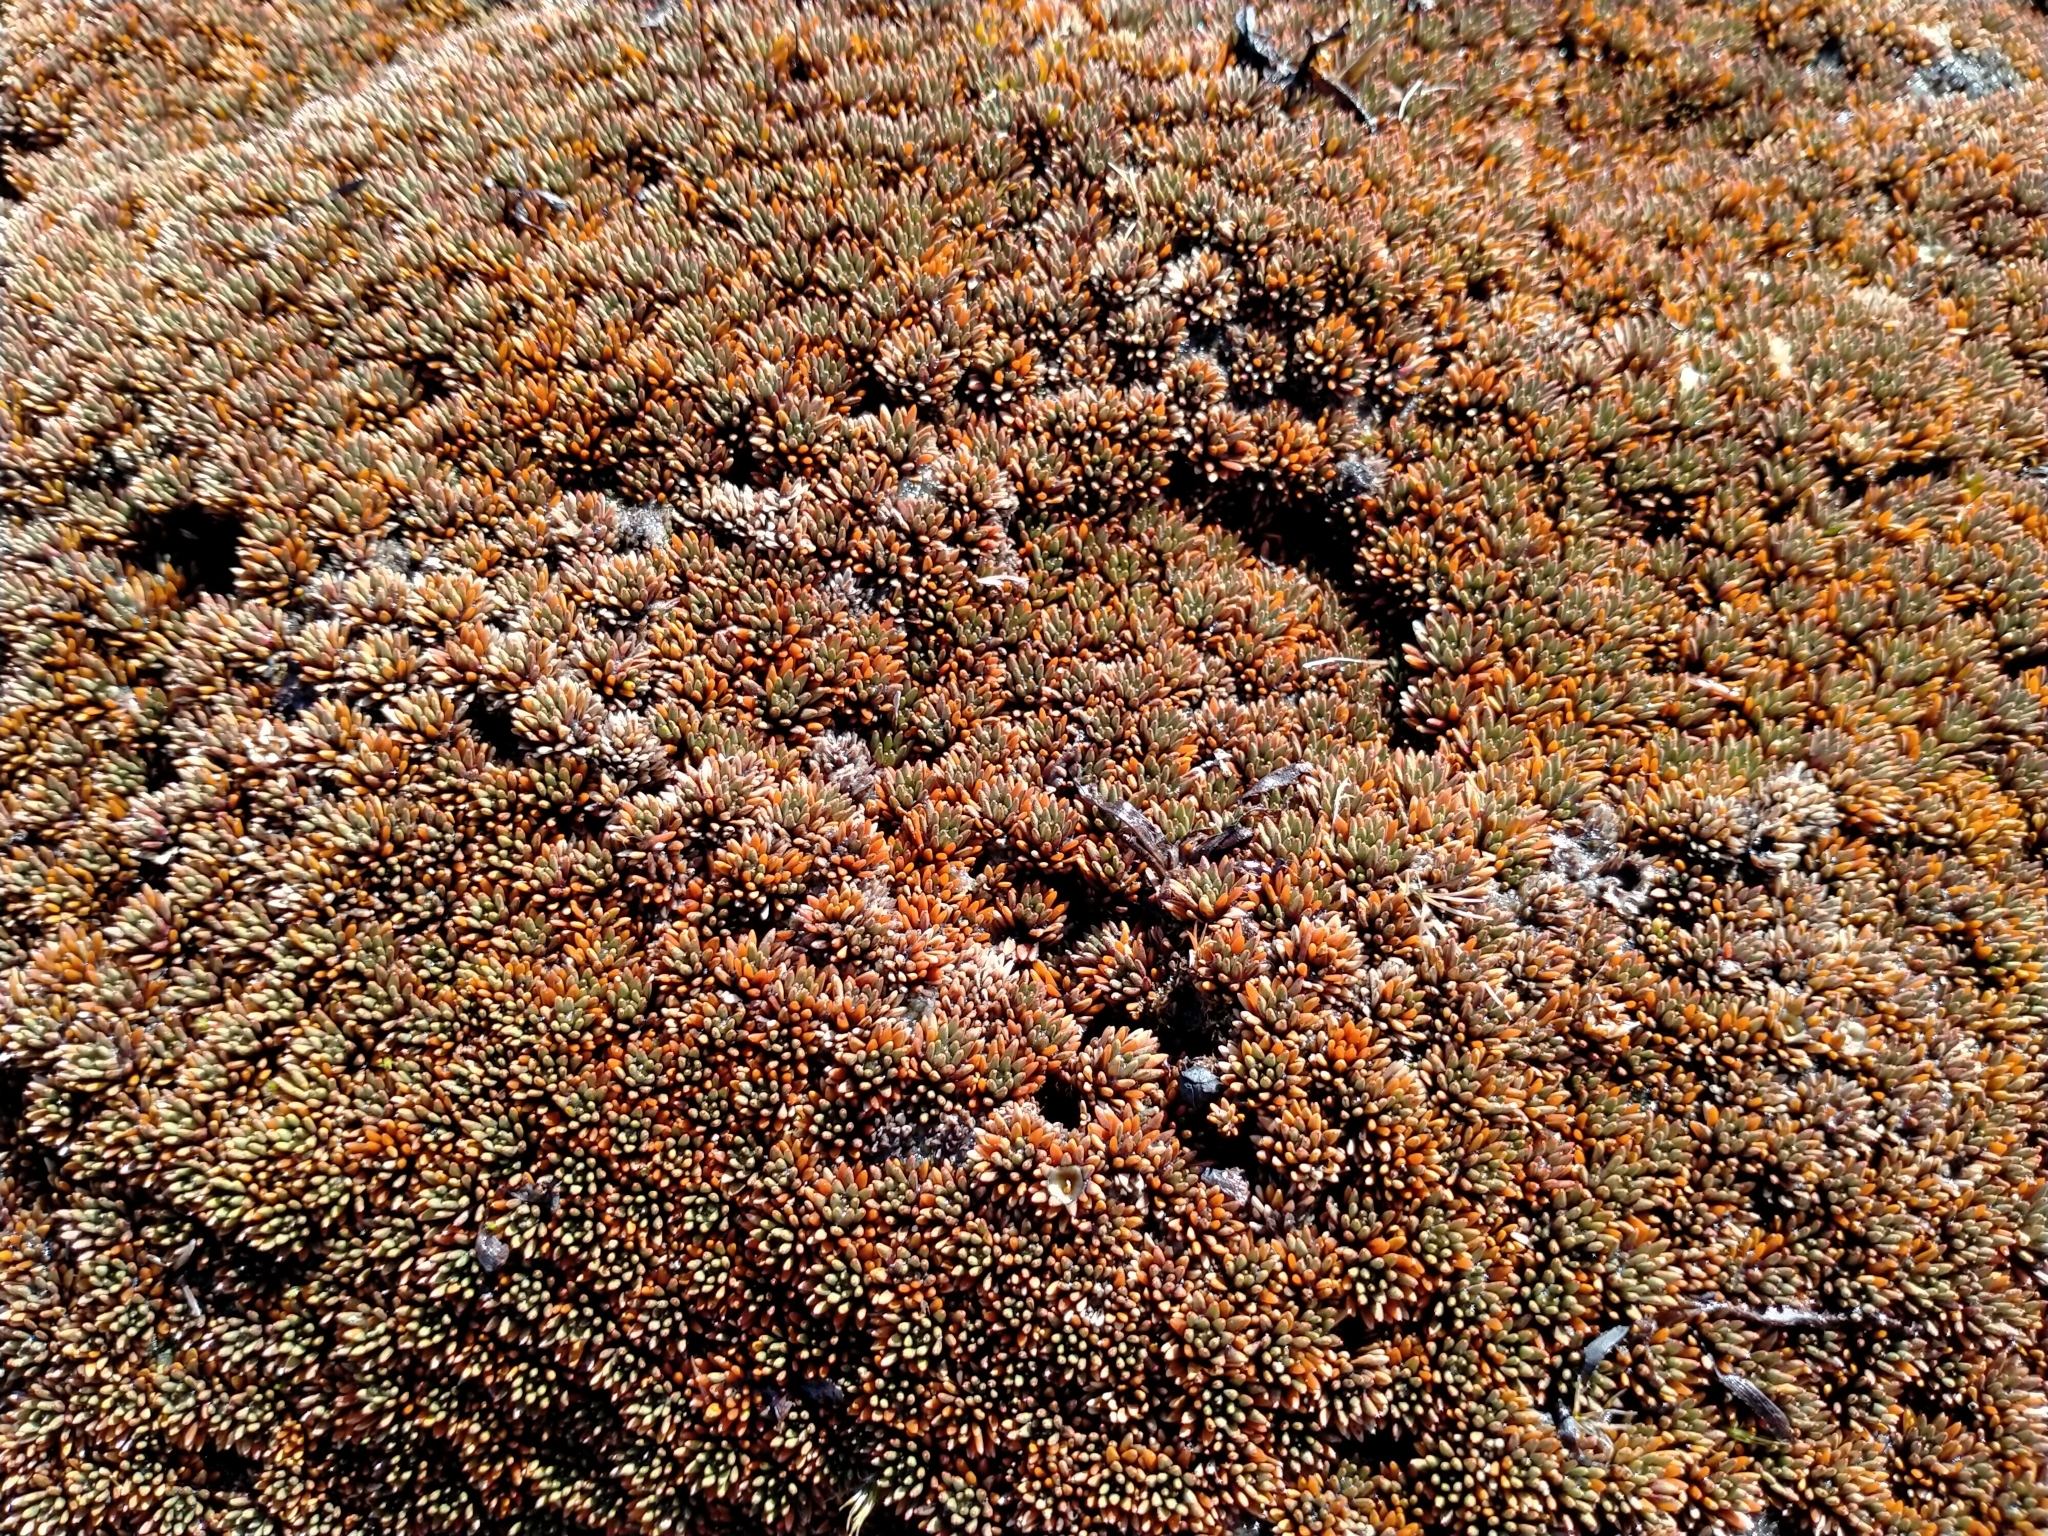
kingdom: Plantae
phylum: Tracheophyta
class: Magnoliopsida
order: Asterales
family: Stylidiaceae
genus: Donatia
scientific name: Donatia novae-zelandiae
